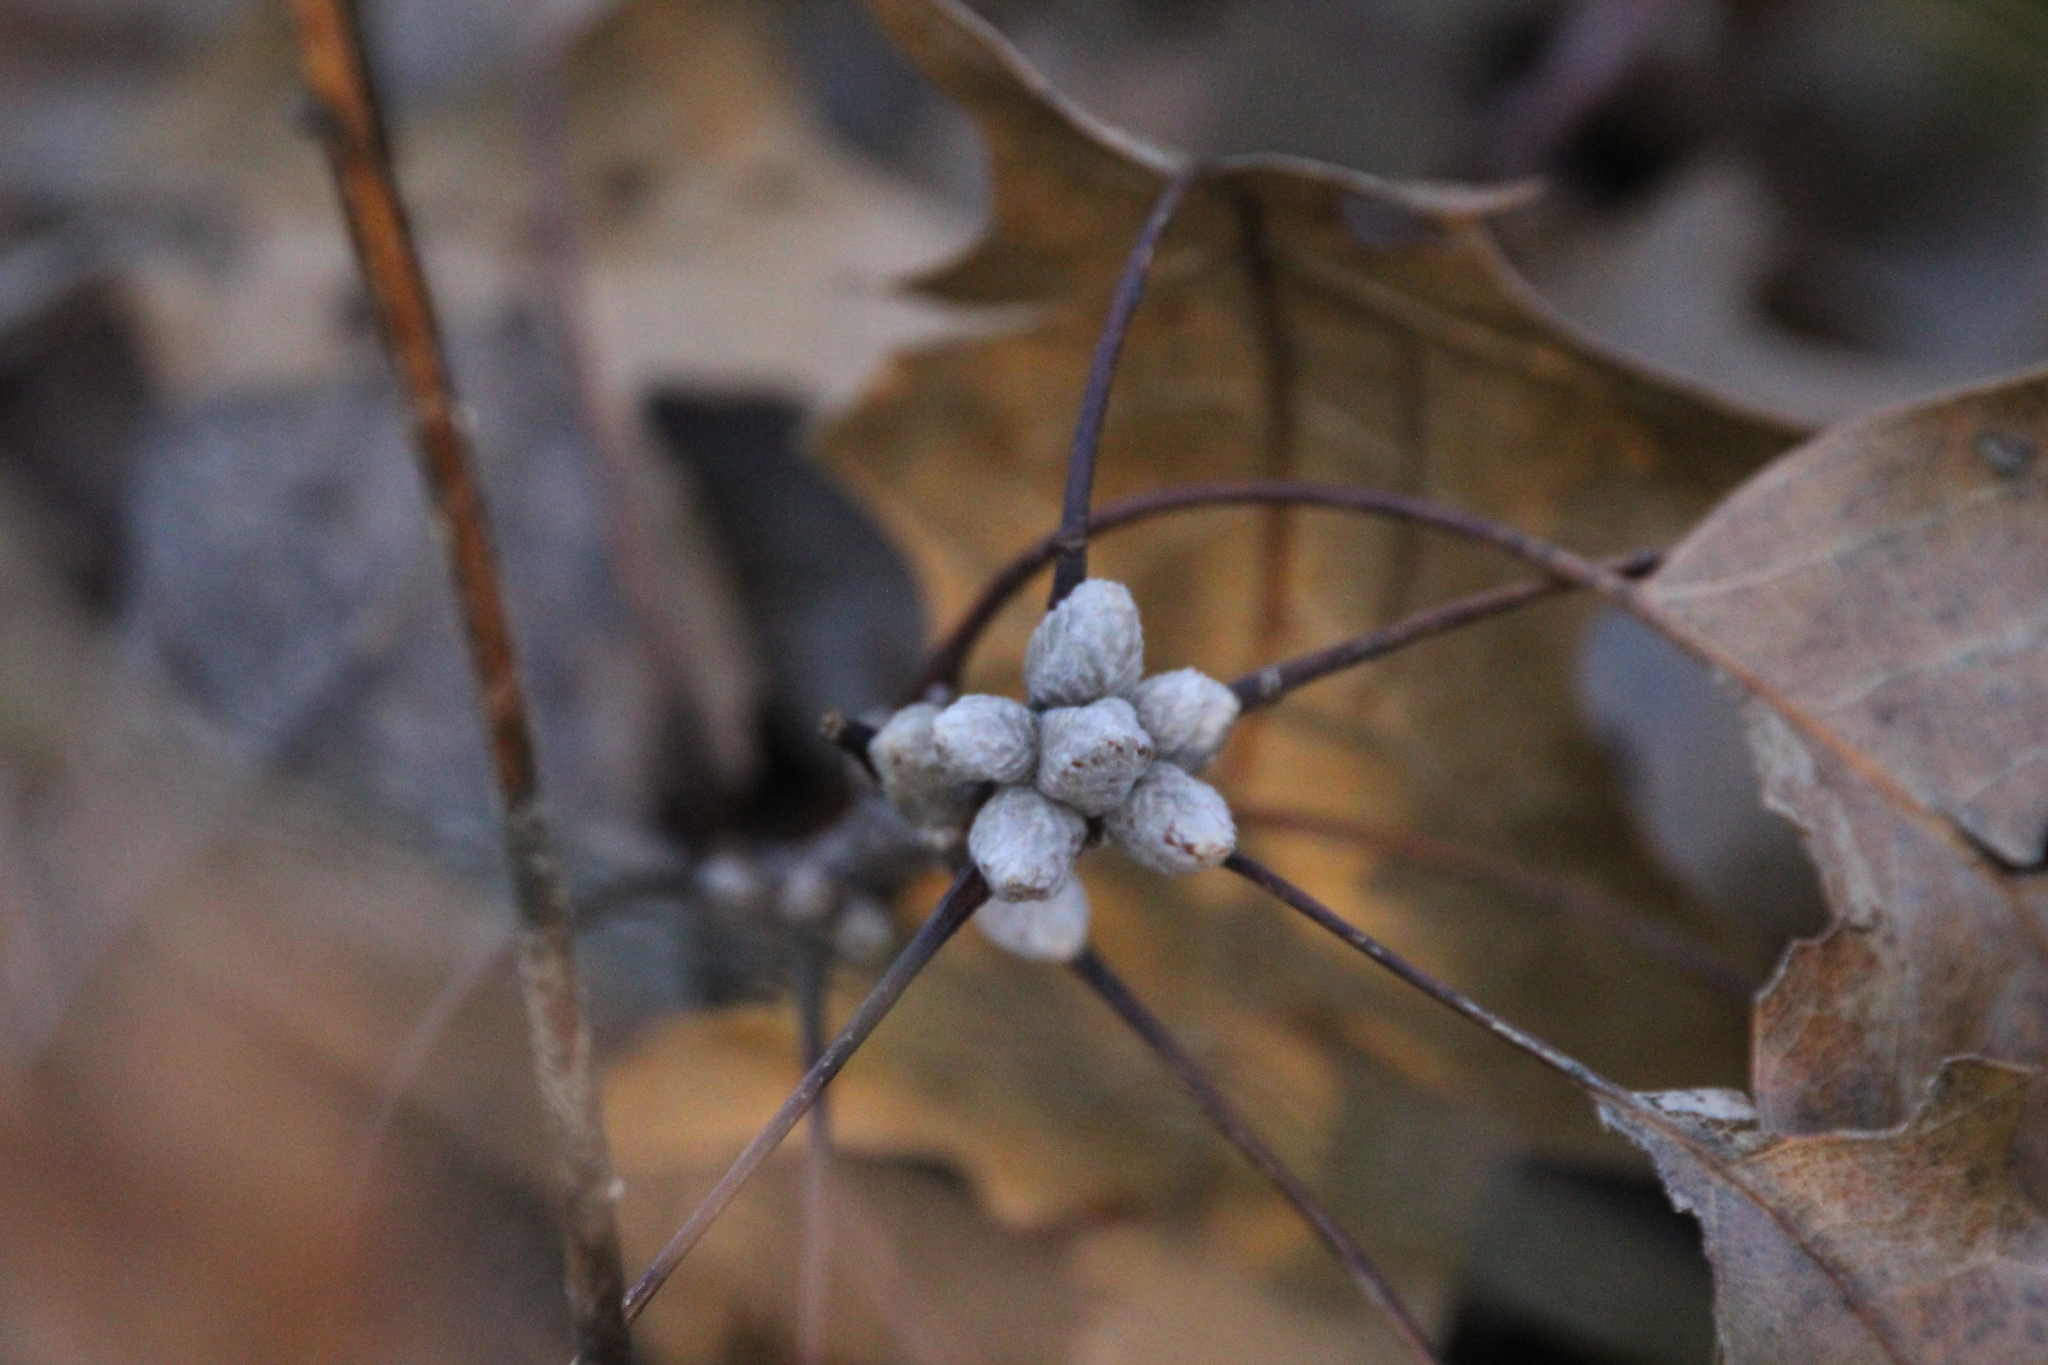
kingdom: Plantae
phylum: Tracheophyta
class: Magnoliopsida
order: Fagales
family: Fagaceae
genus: Quercus
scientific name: Quercus velutina
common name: Black oak
